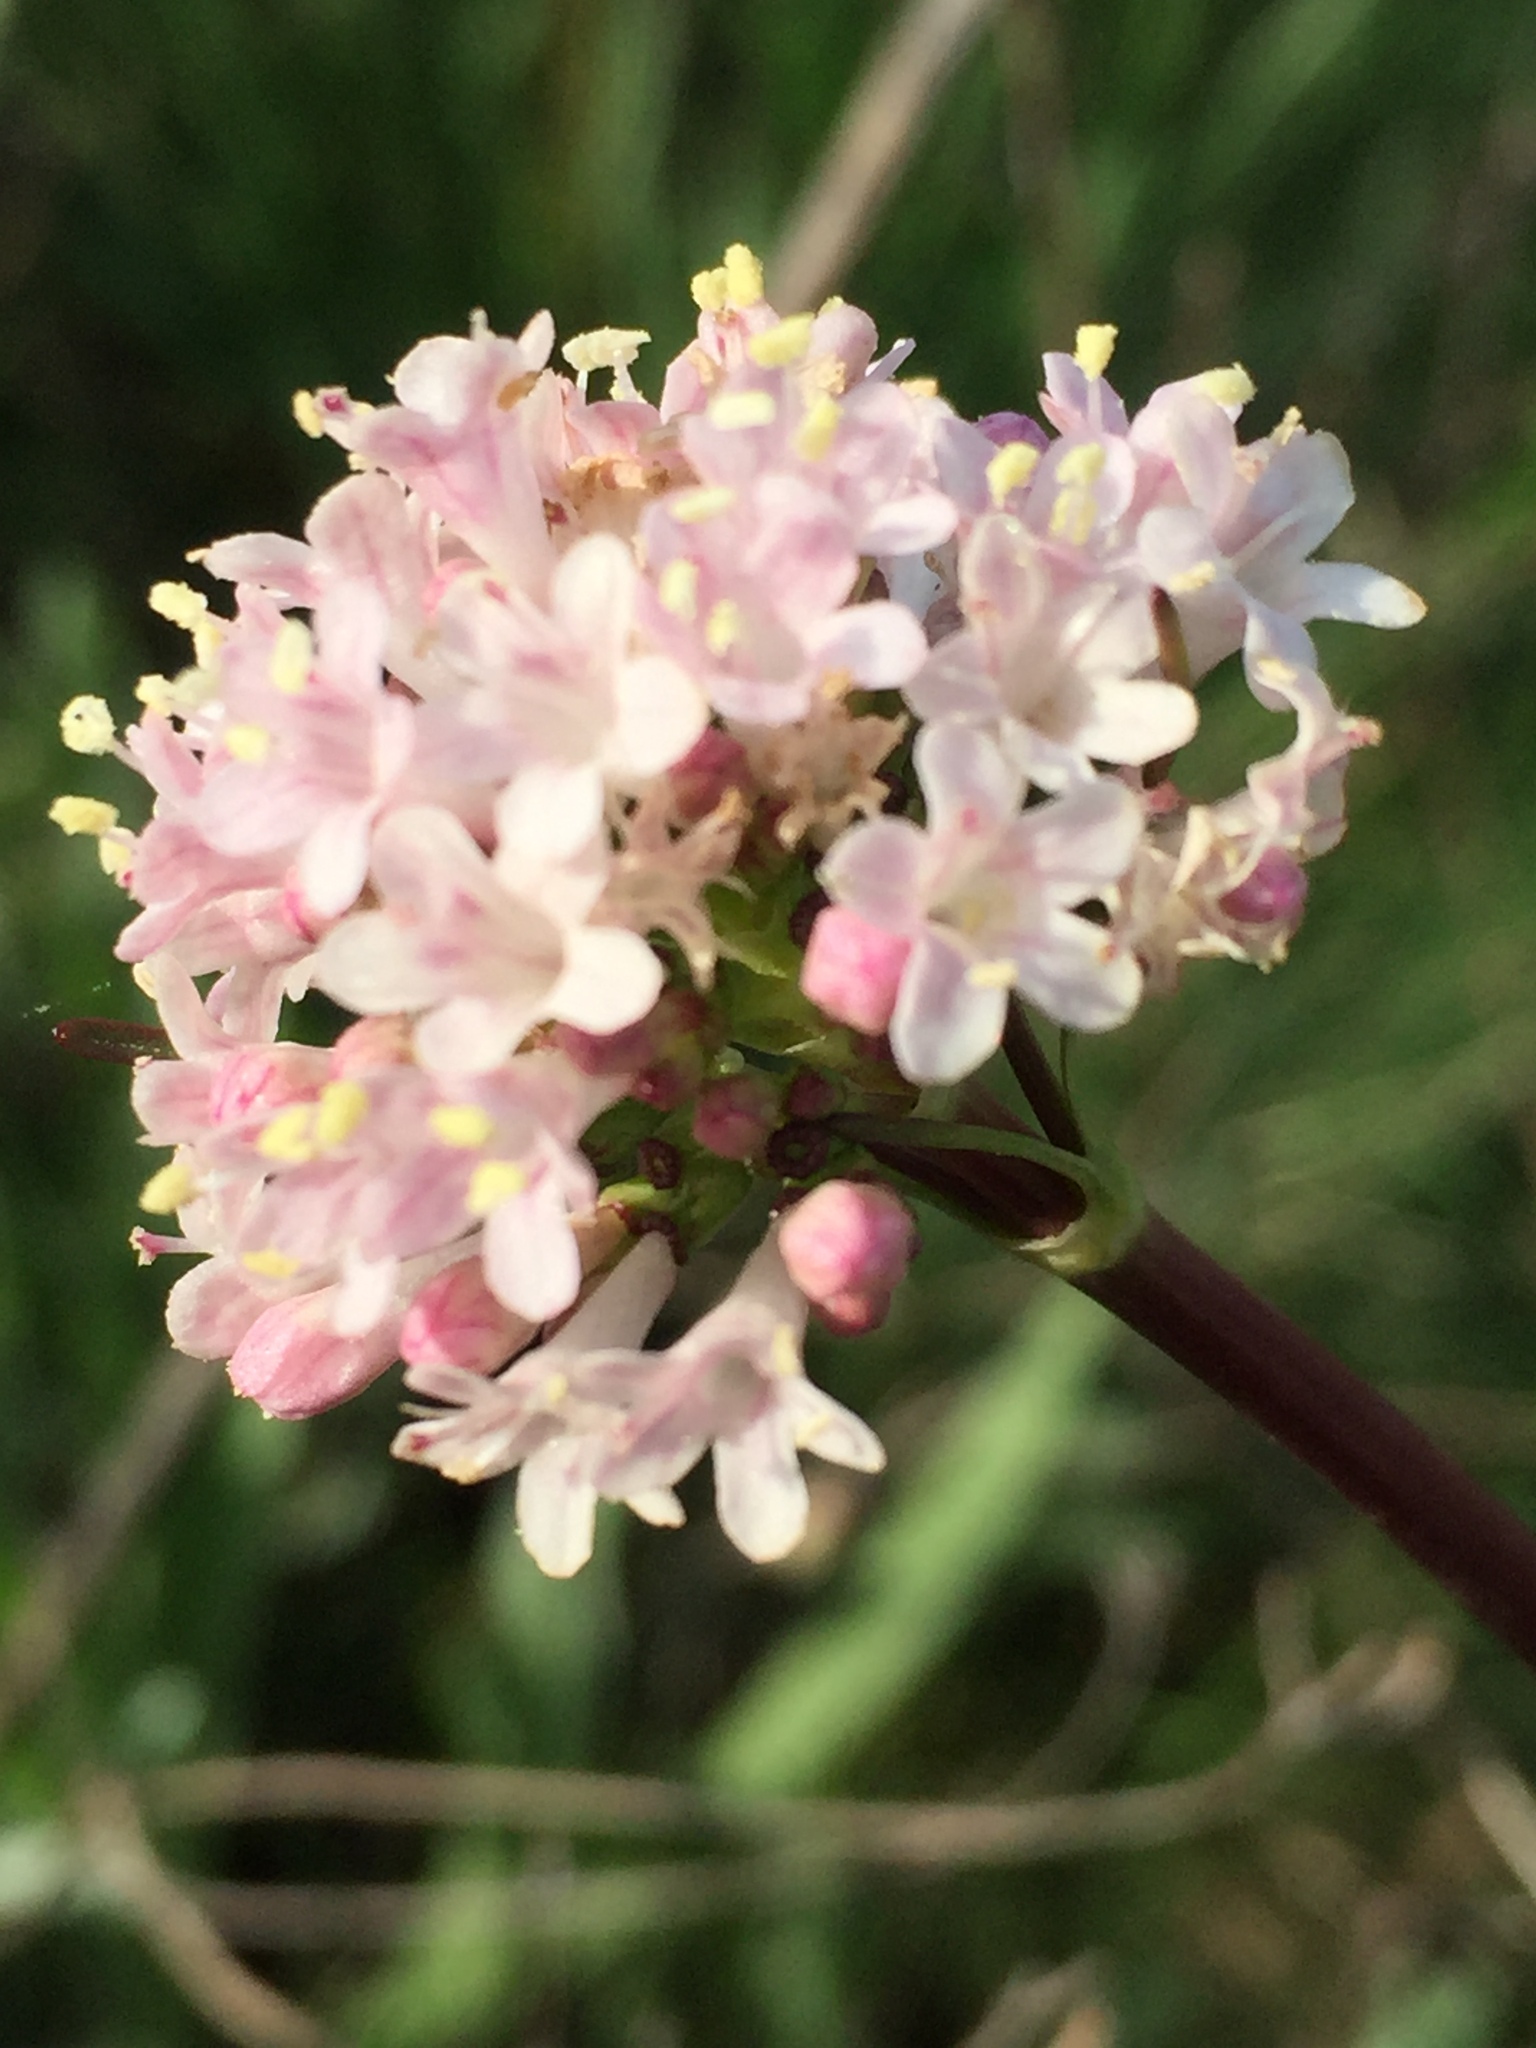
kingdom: Plantae
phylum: Tracheophyta
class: Magnoliopsida
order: Dipsacales
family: Caprifoliaceae
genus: Valeriana
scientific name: Valeriana tuberosa
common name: Tuberous valerian
